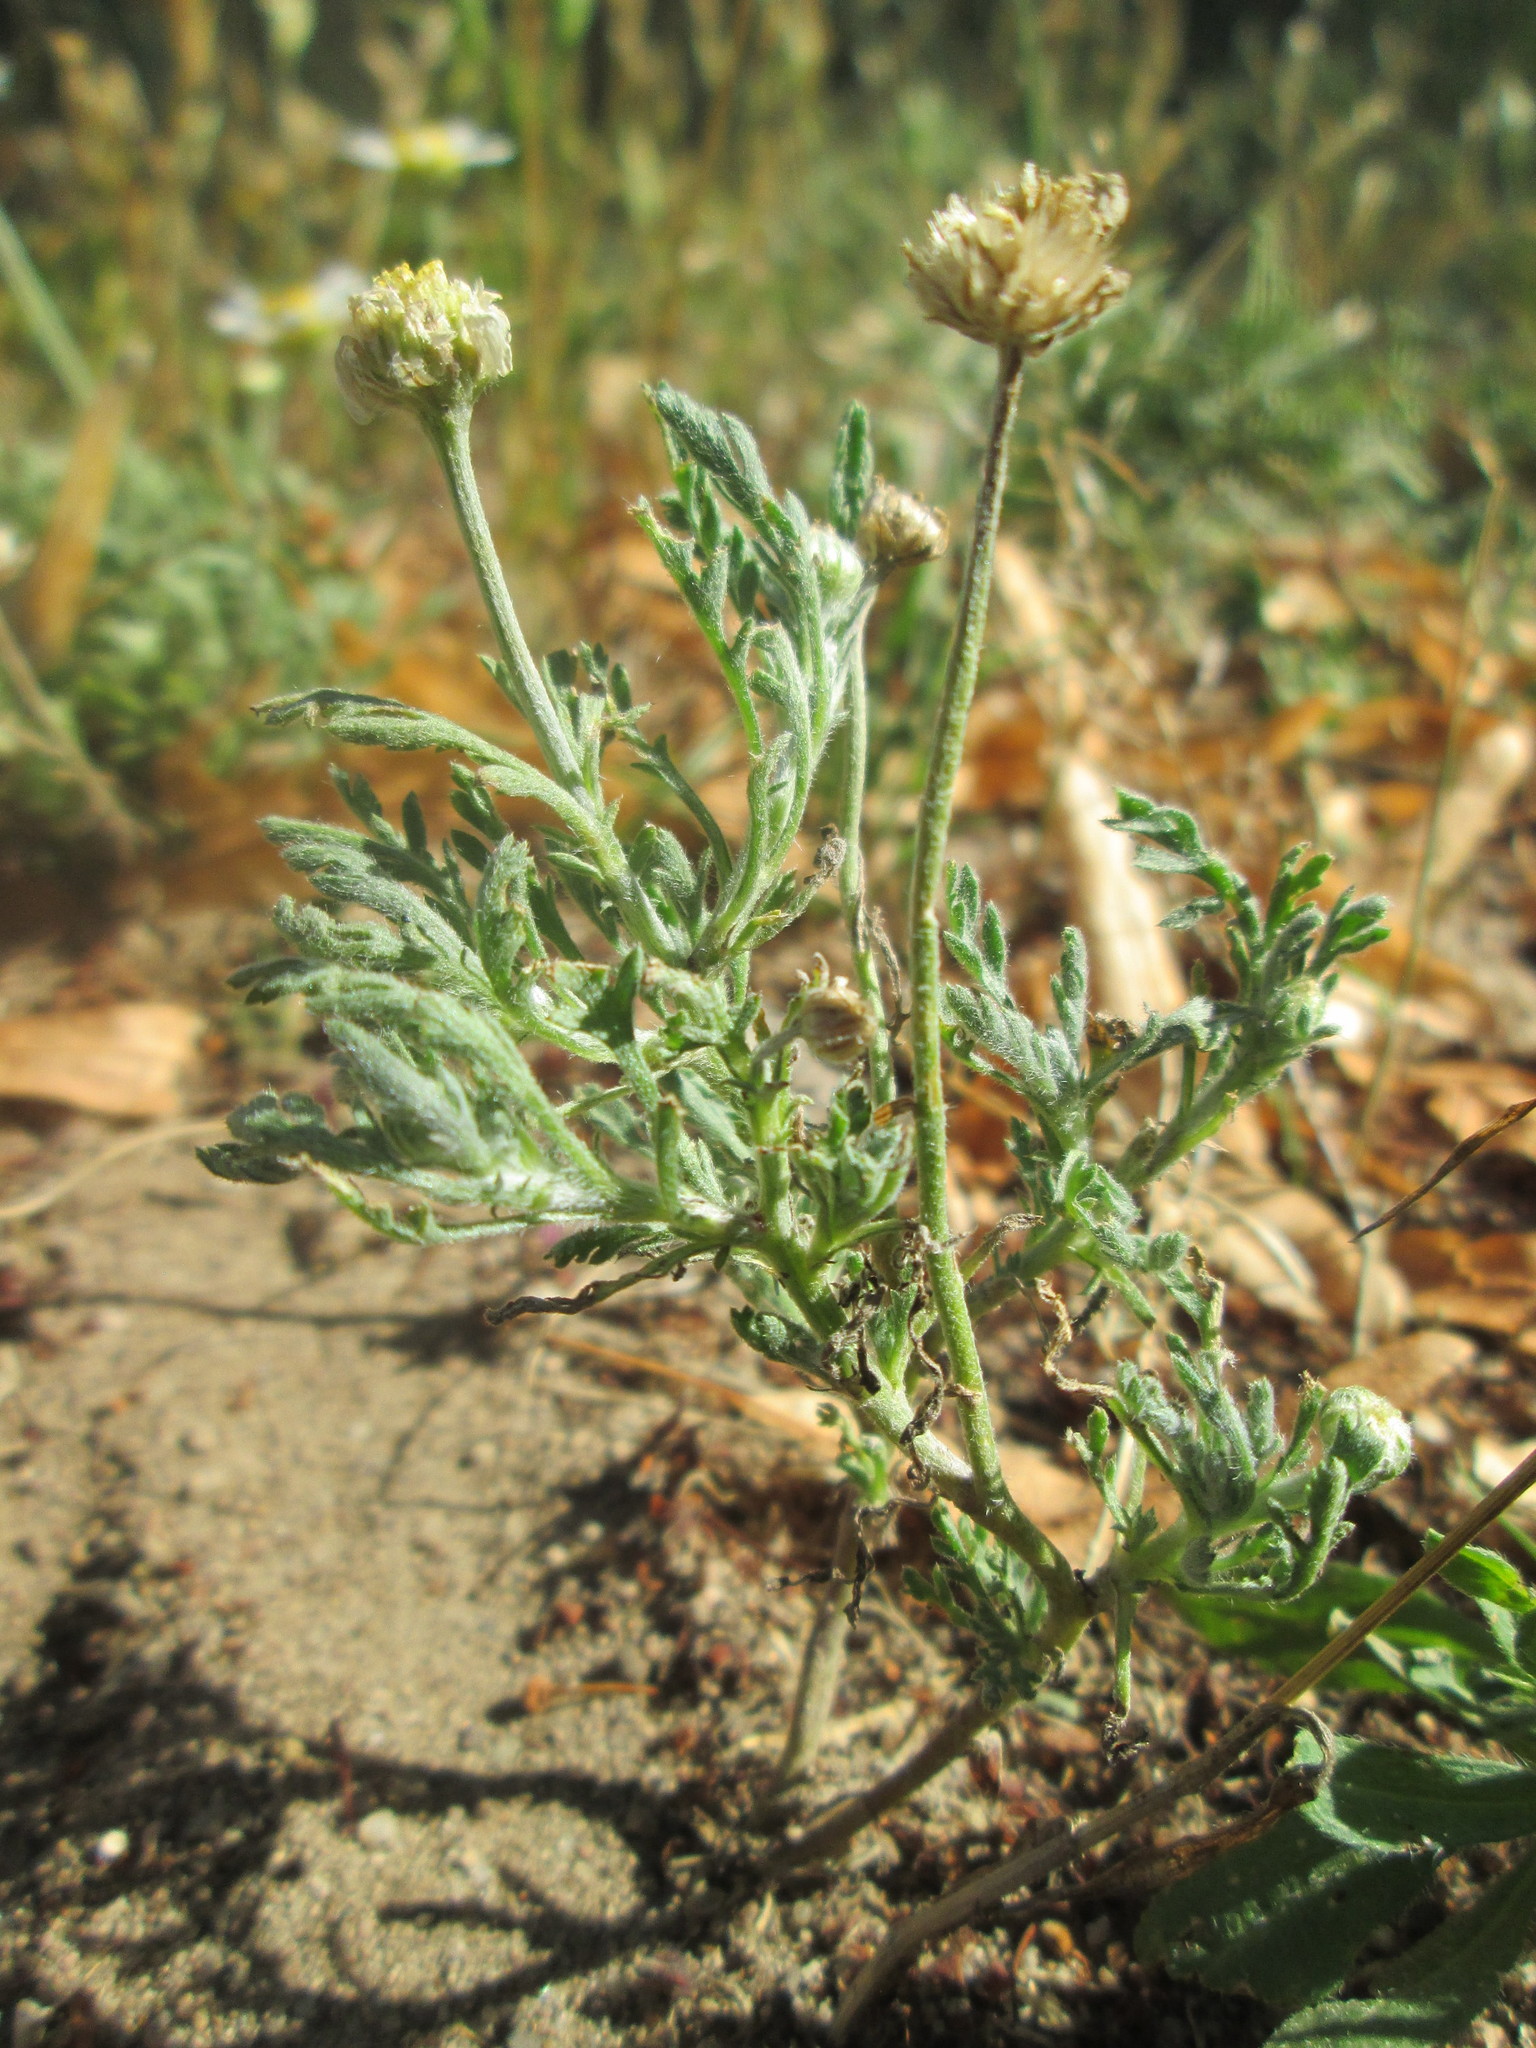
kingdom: Plantae
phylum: Tracheophyta
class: Magnoliopsida
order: Asterales
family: Asteraceae
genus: Anthemis
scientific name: Anthemis arvensis
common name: Corn chamomile
